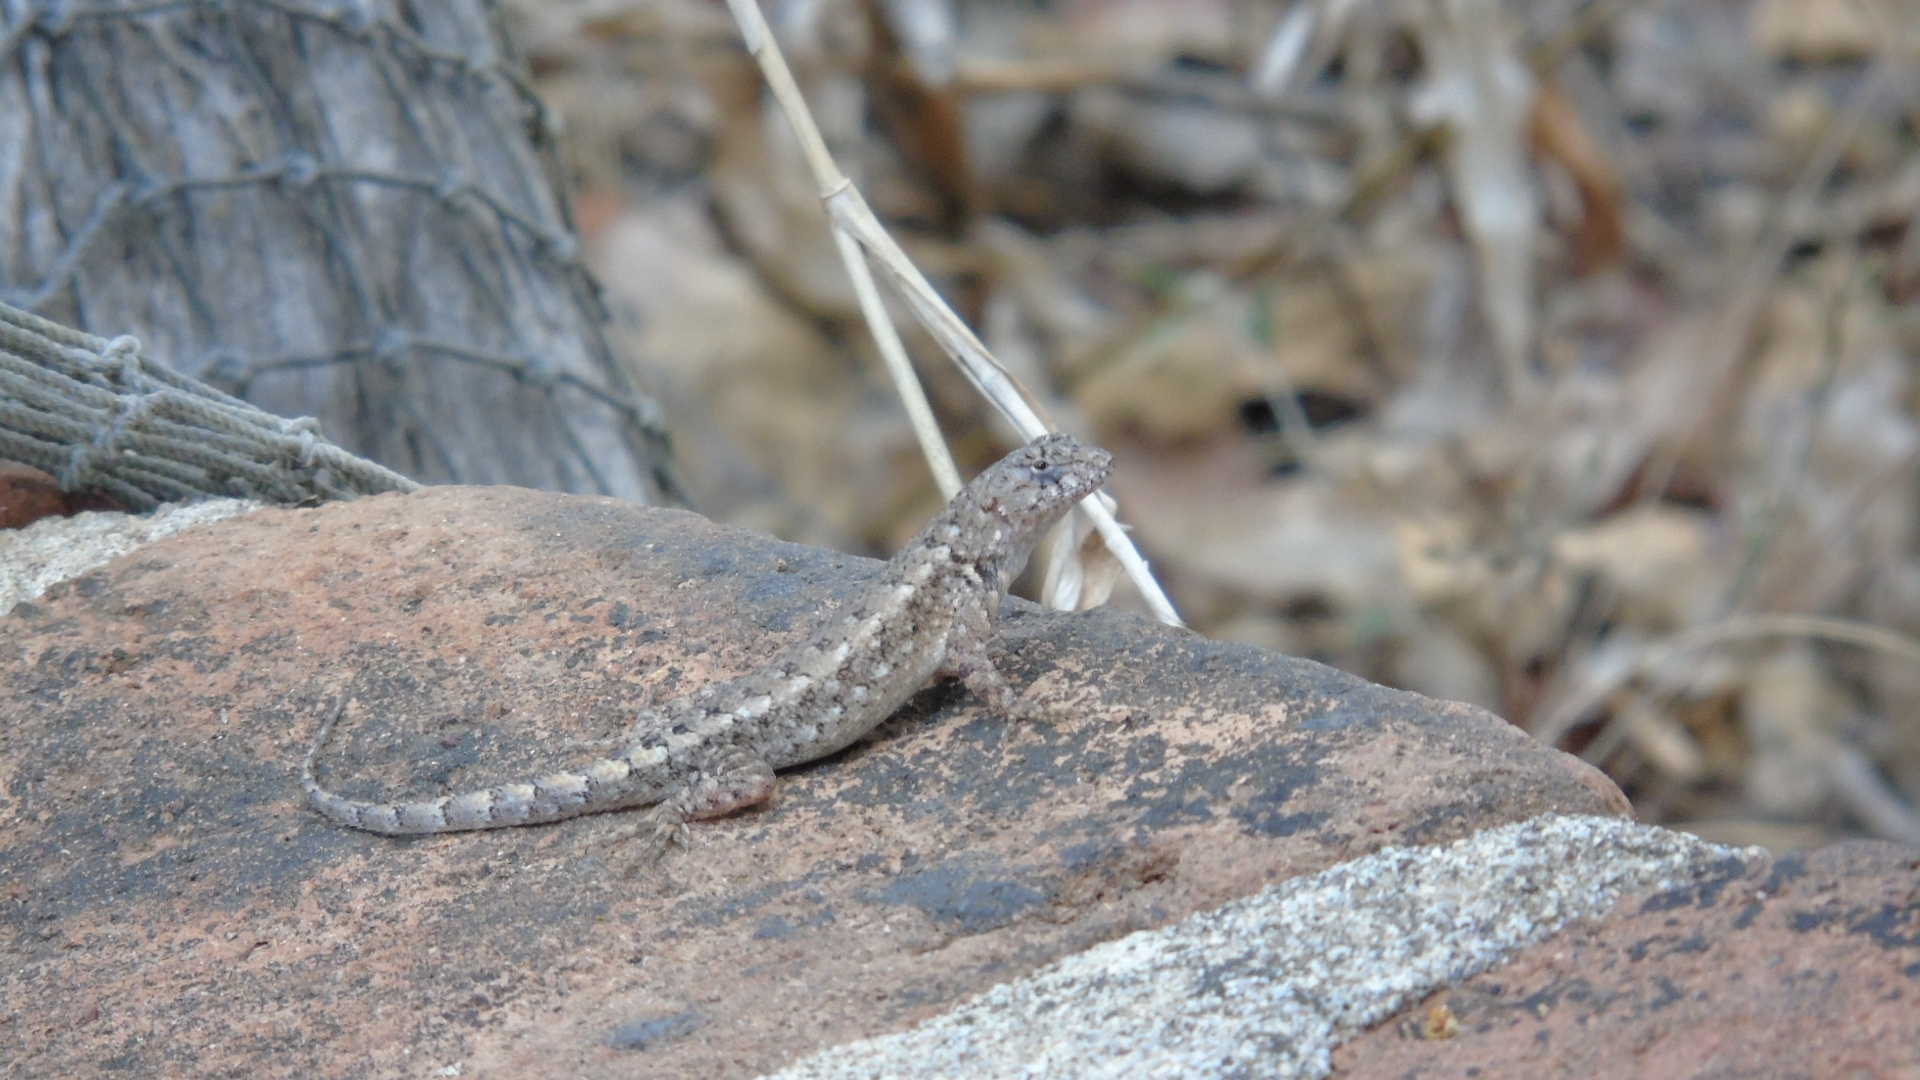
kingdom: Animalia
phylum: Chordata
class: Squamata
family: Phrynosomatidae
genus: Sceloporus
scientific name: Sceloporus nelsoni
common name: Nelson's spiny lizard
